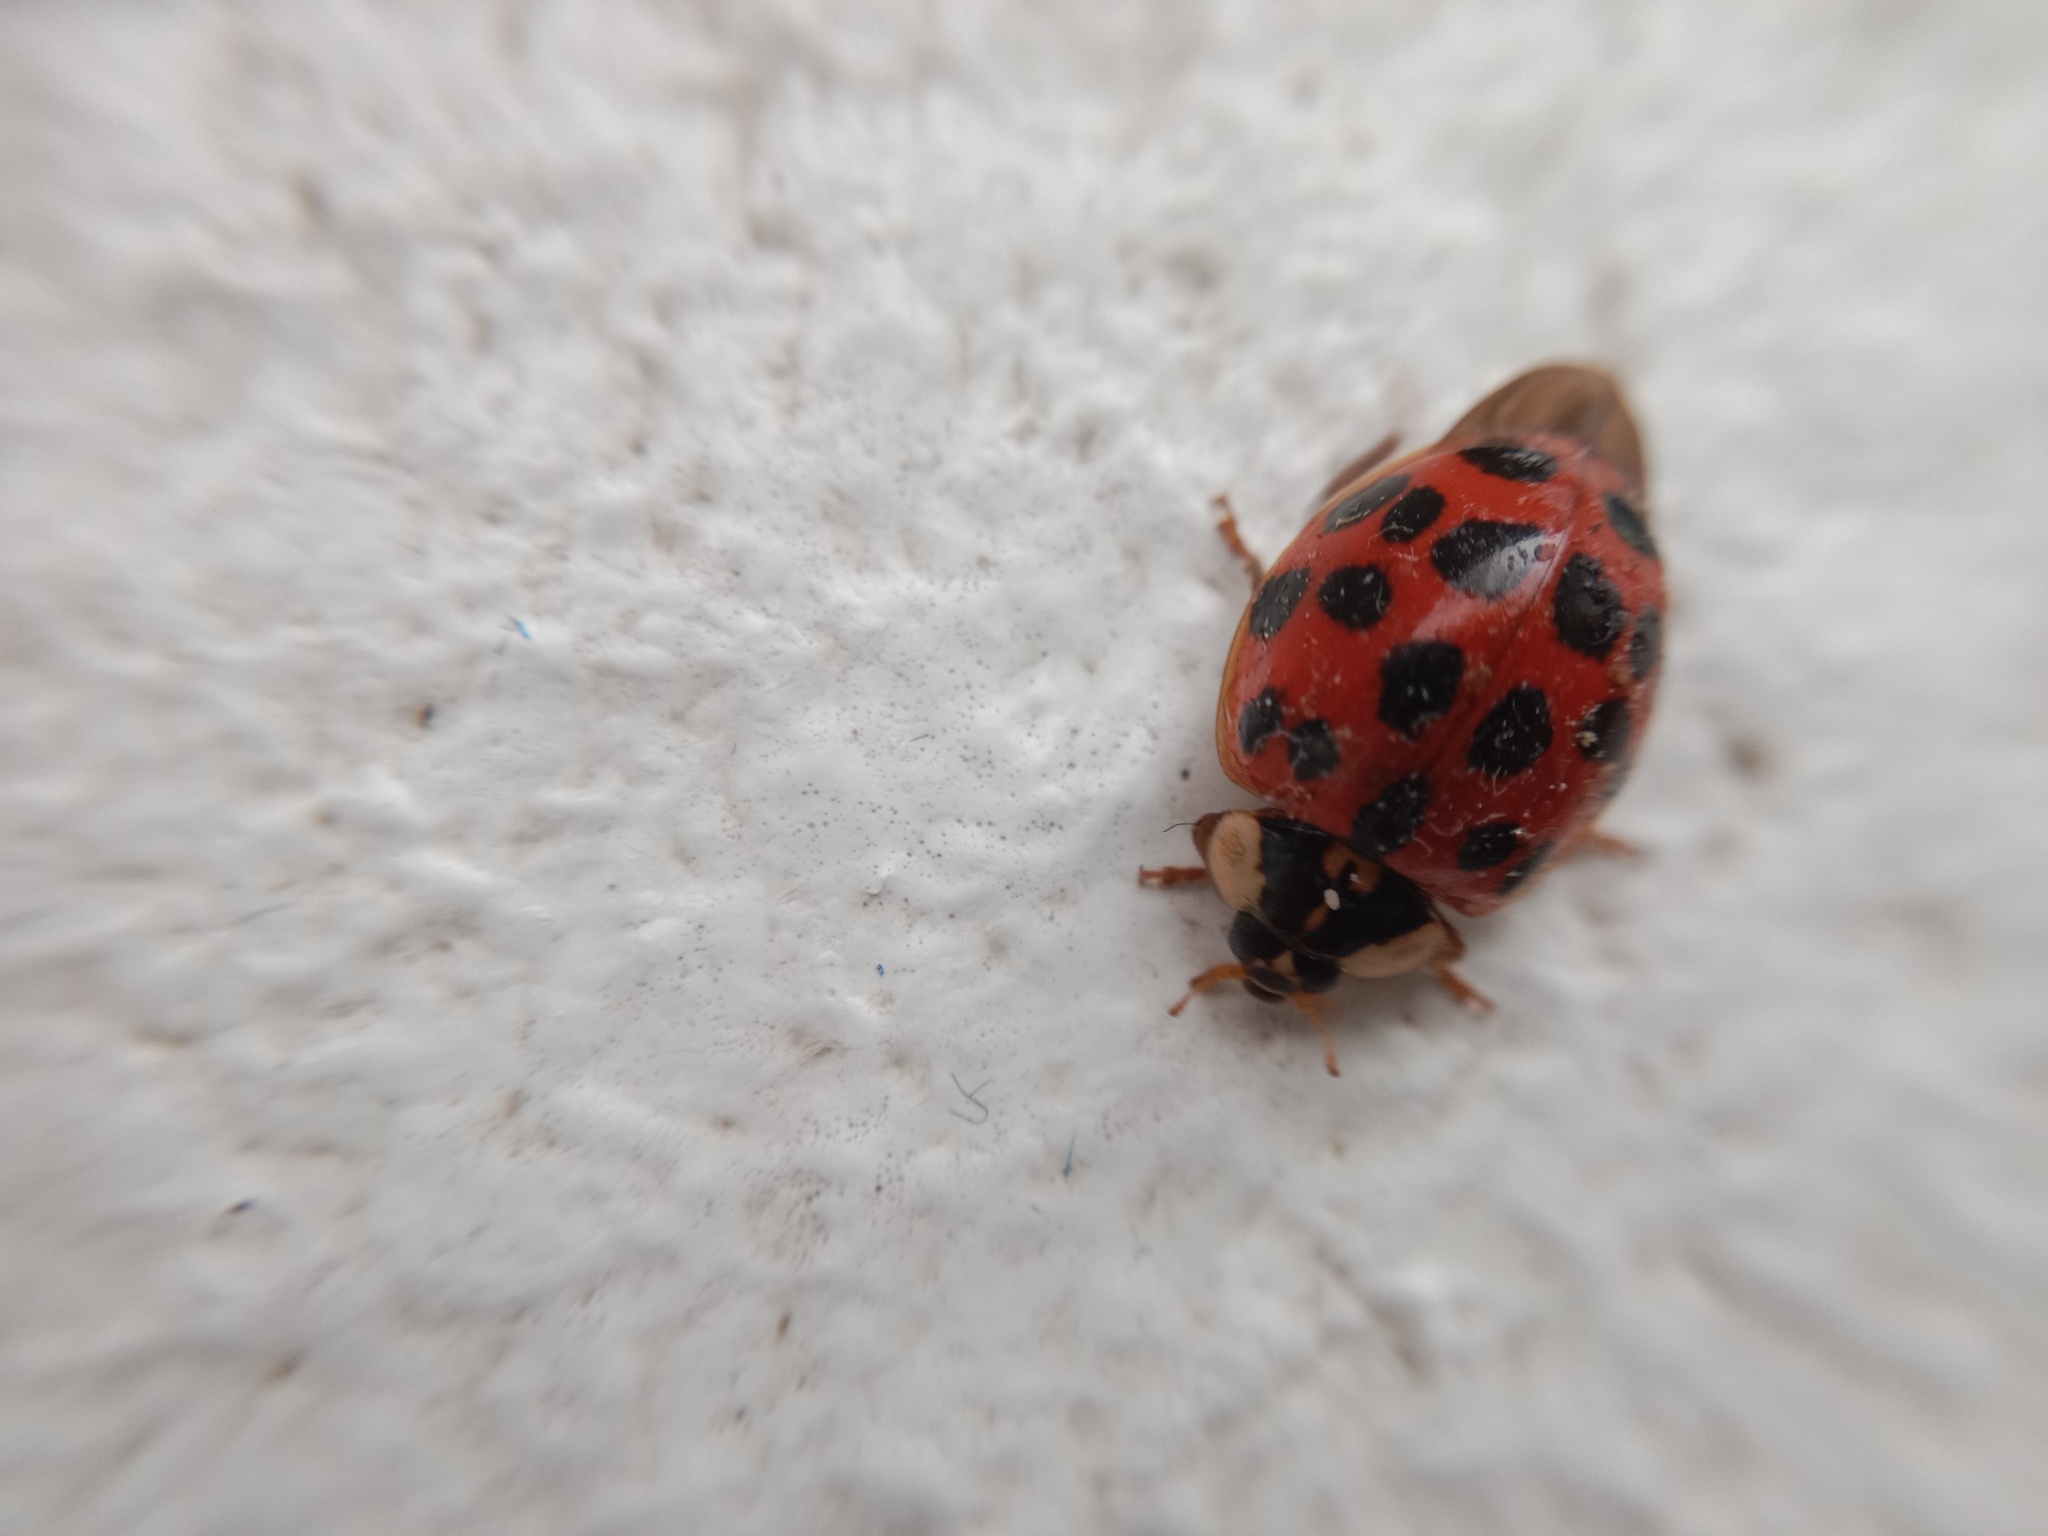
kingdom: Animalia
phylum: Arthropoda
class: Insecta
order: Coleoptera
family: Coccinellidae
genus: Harmonia
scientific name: Harmonia axyridis
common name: Harlequin ladybird
